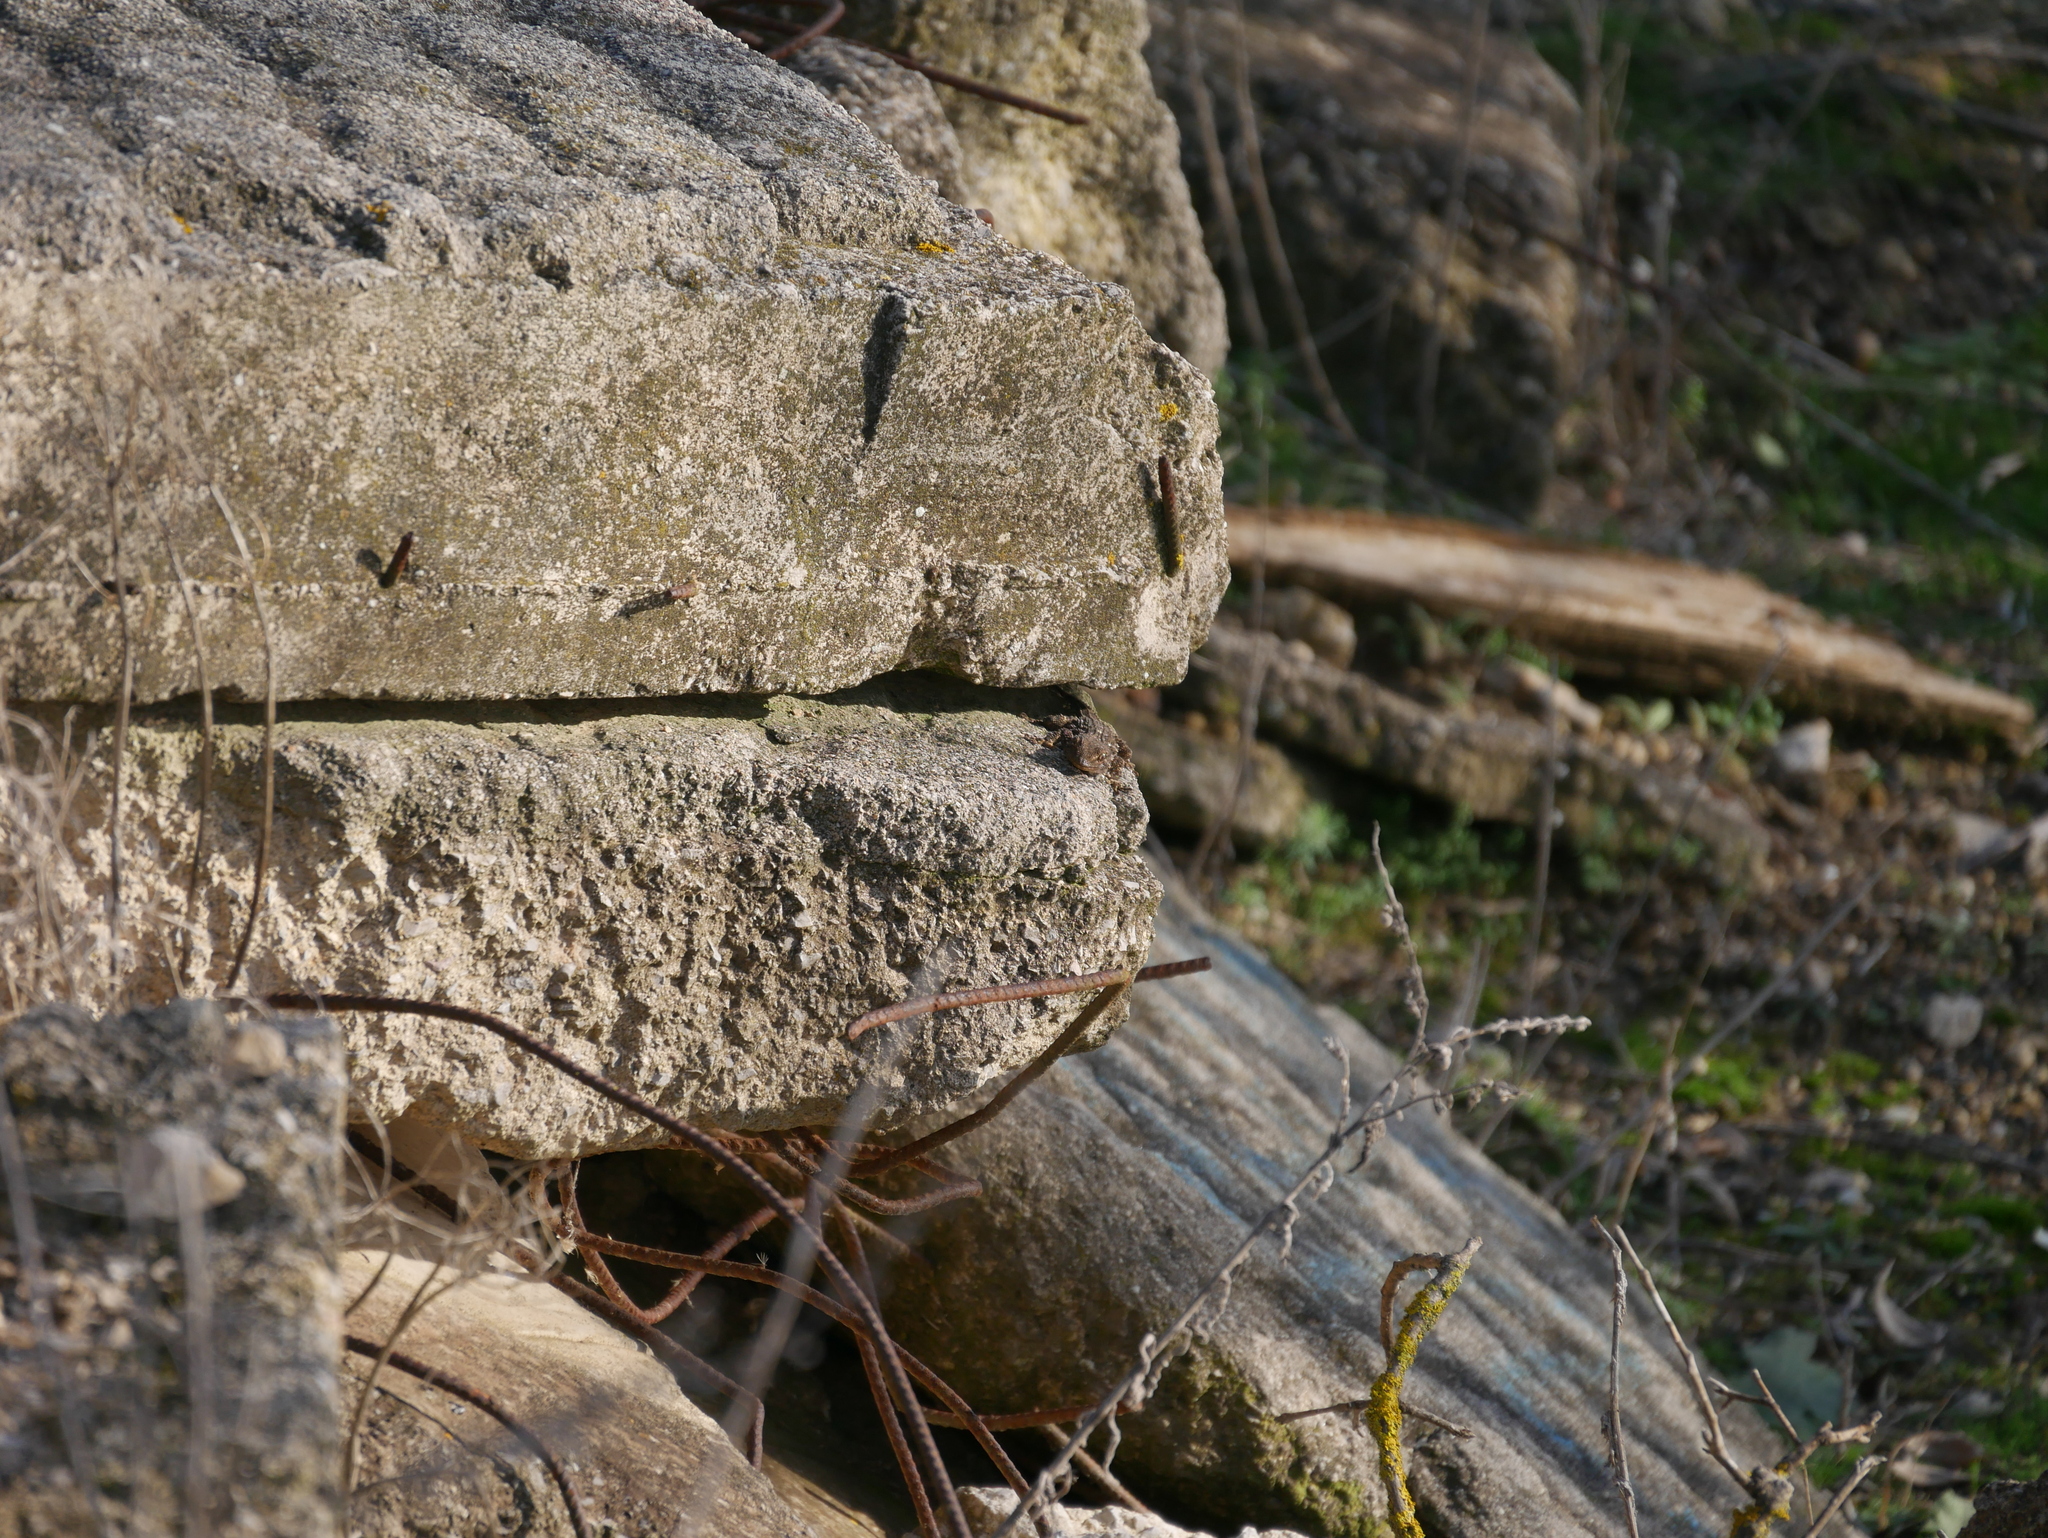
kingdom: Animalia
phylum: Chordata
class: Squamata
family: Phyllodactylidae
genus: Tarentola
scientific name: Tarentola mauritanica
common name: Moorish gecko
